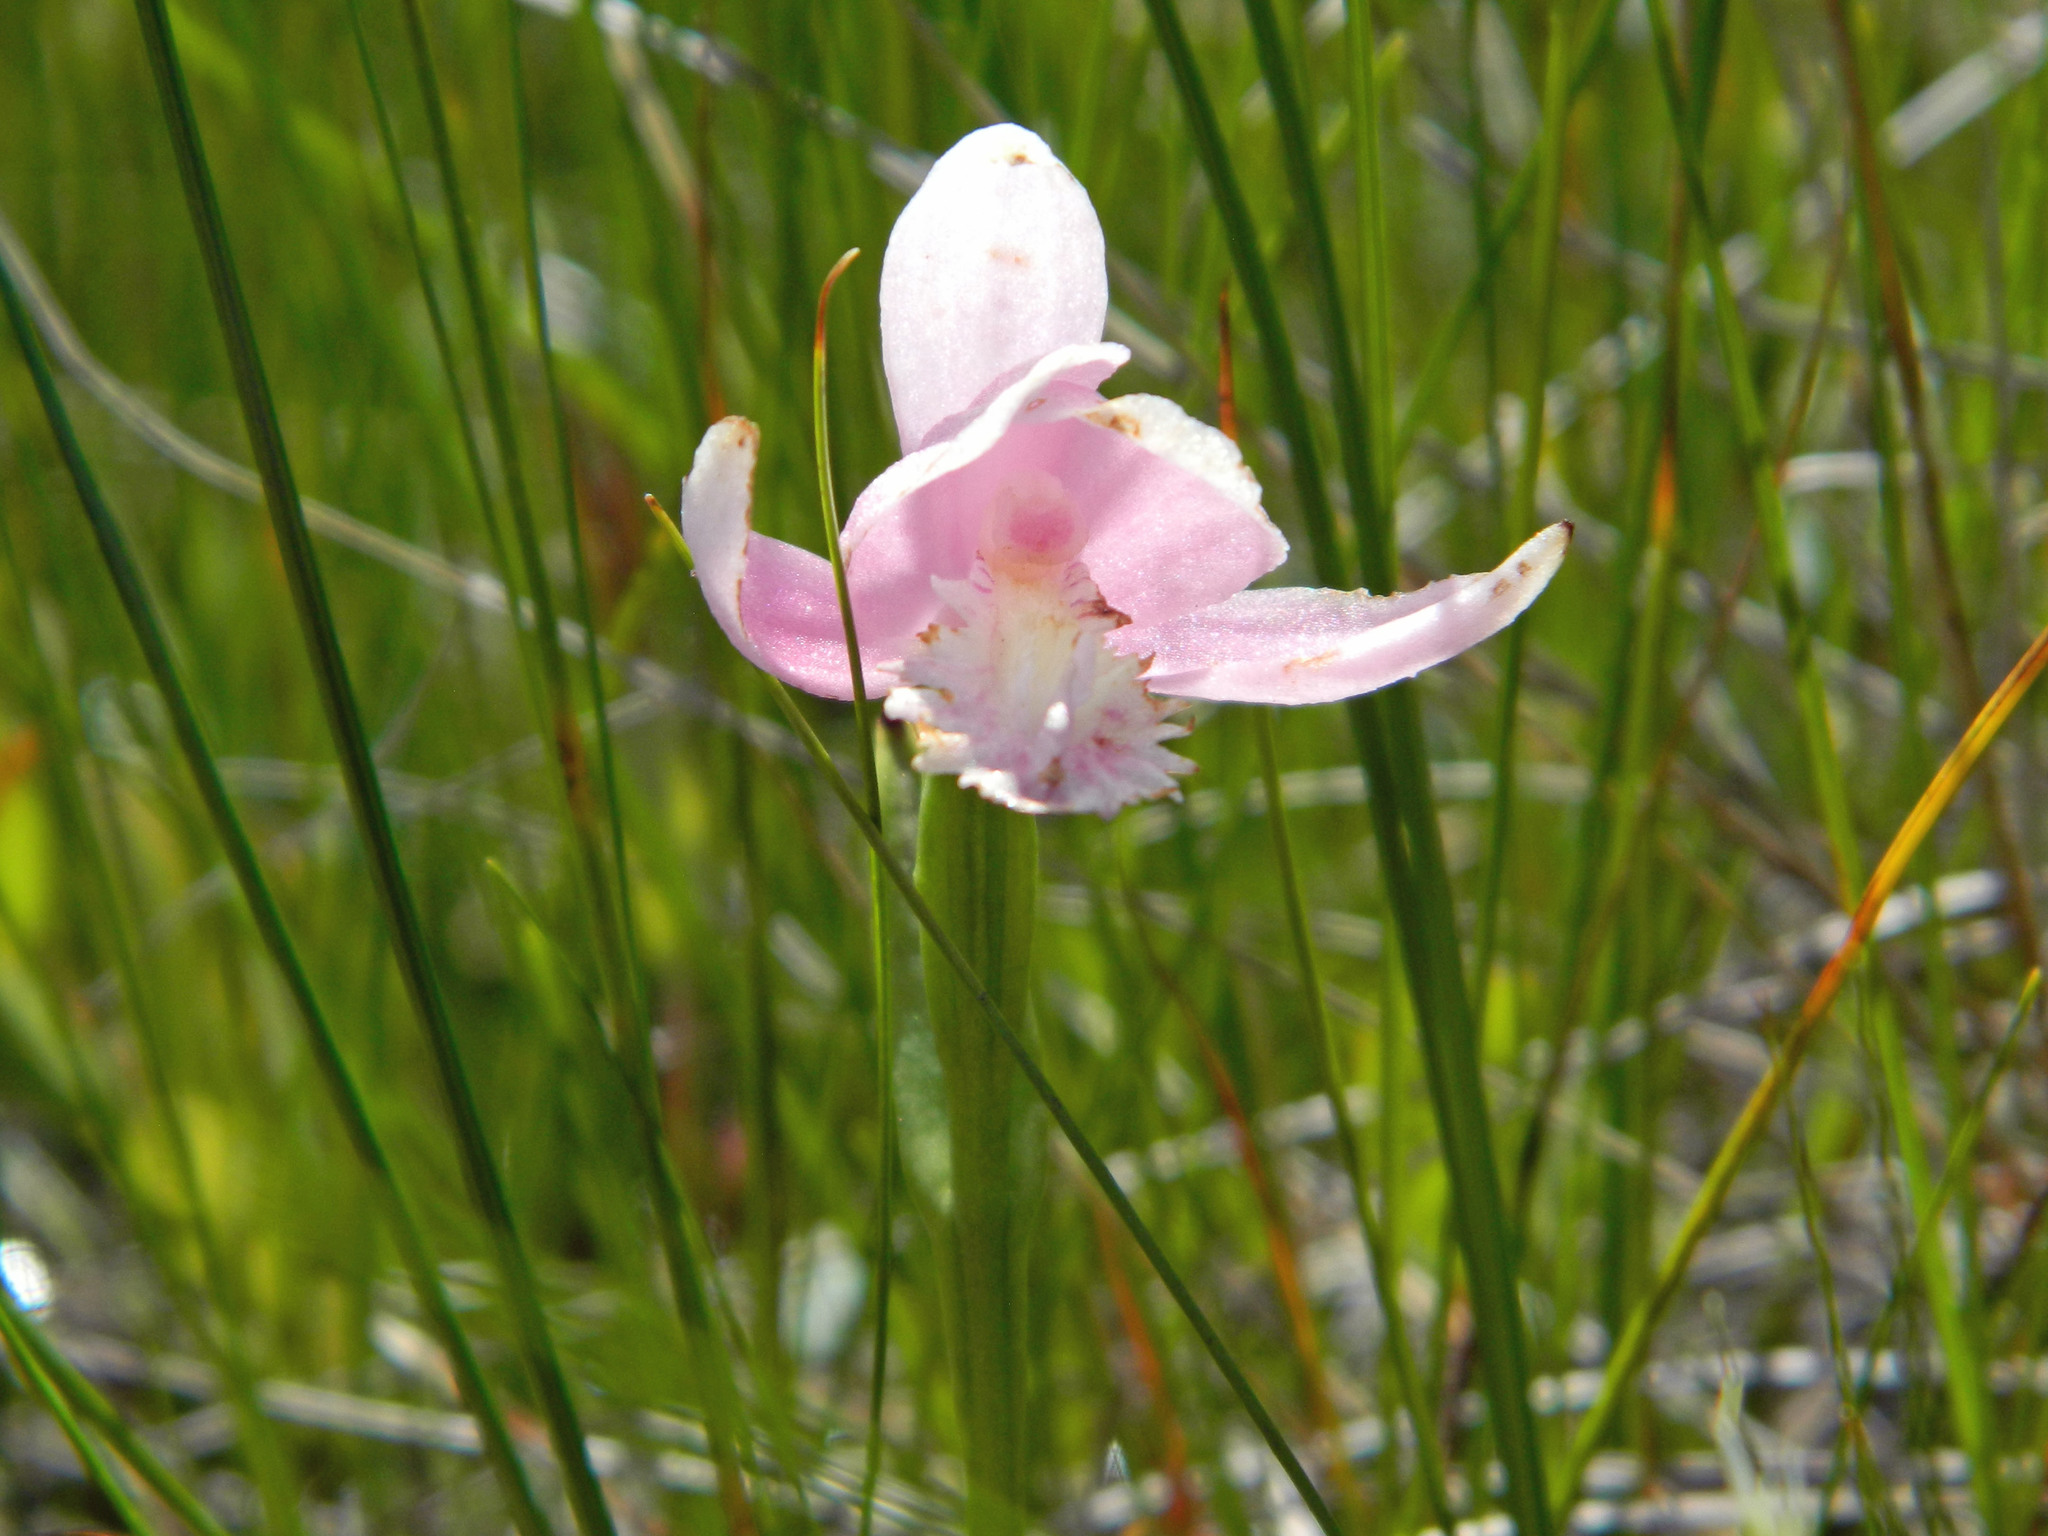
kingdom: Plantae
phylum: Tracheophyta
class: Liliopsida
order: Asparagales
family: Orchidaceae
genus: Pogonia
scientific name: Pogonia ophioglossoides
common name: Rose pogonia
